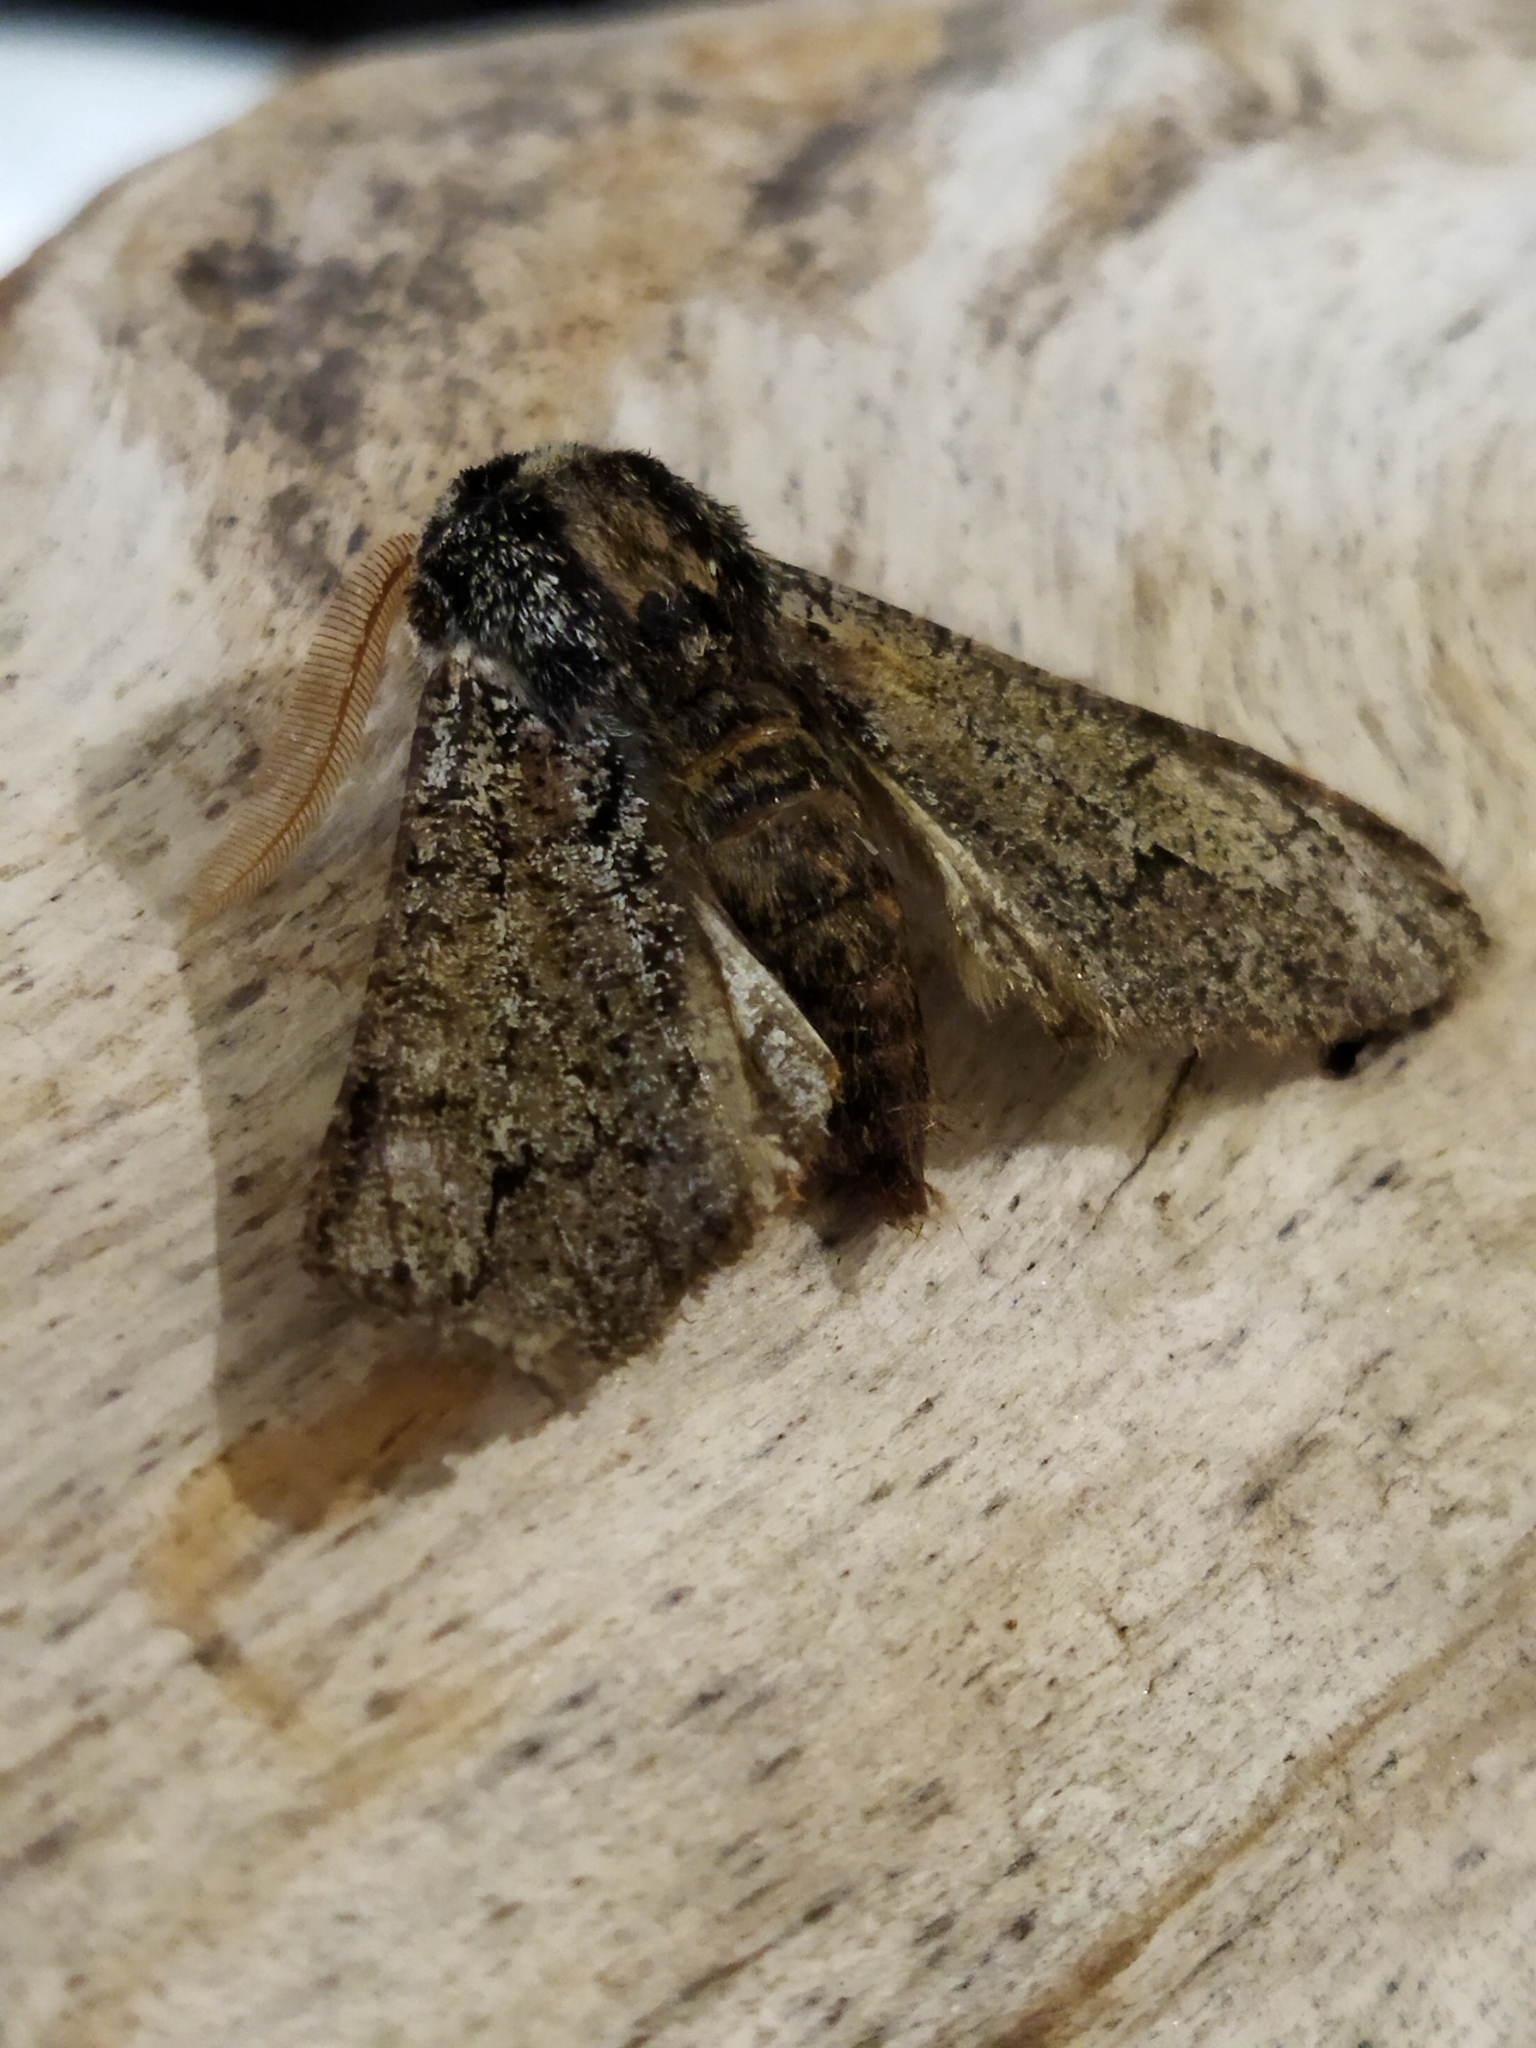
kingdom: Animalia
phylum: Arthropoda
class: Insecta
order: Lepidoptera
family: Geometridae
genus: Biston
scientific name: Biston strataria
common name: Oak beauty
